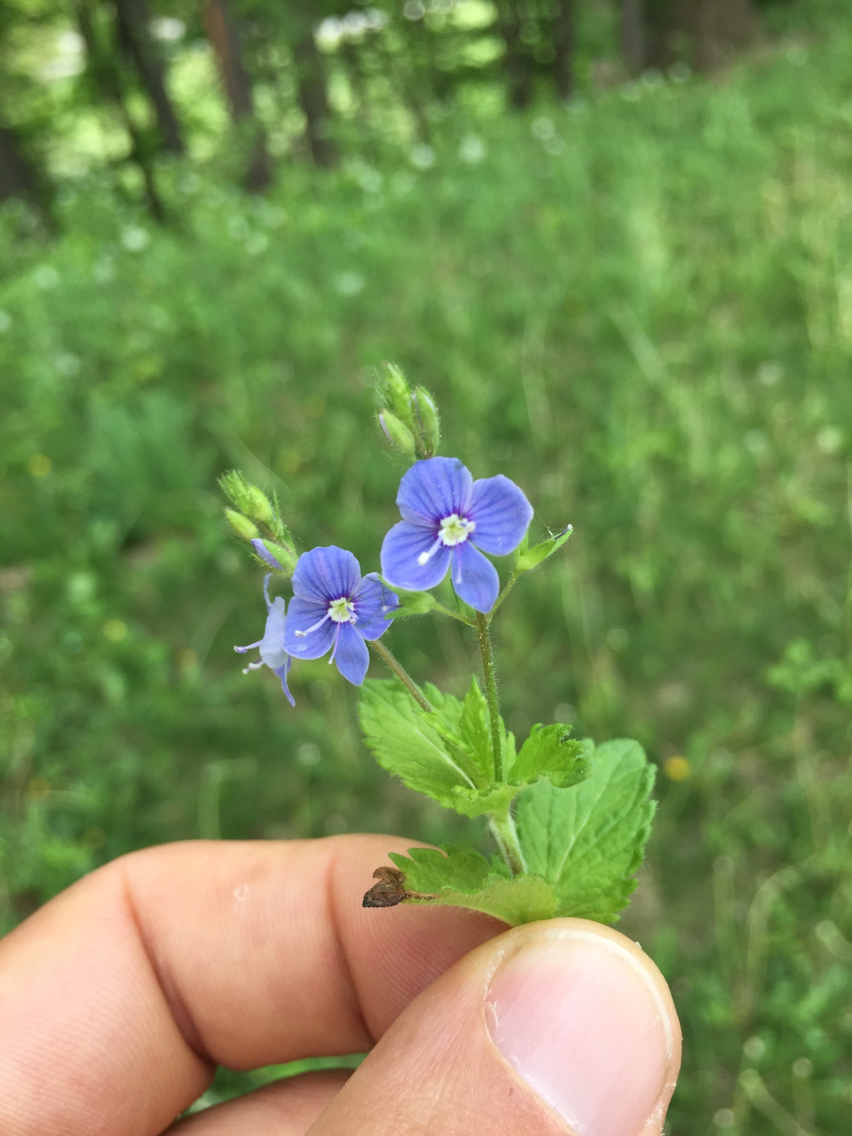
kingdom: Plantae
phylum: Tracheophyta
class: Magnoliopsida
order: Lamiales
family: Plantaginaceae
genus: Veronica
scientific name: Veronica chamaedrys
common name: Germander speedwell
